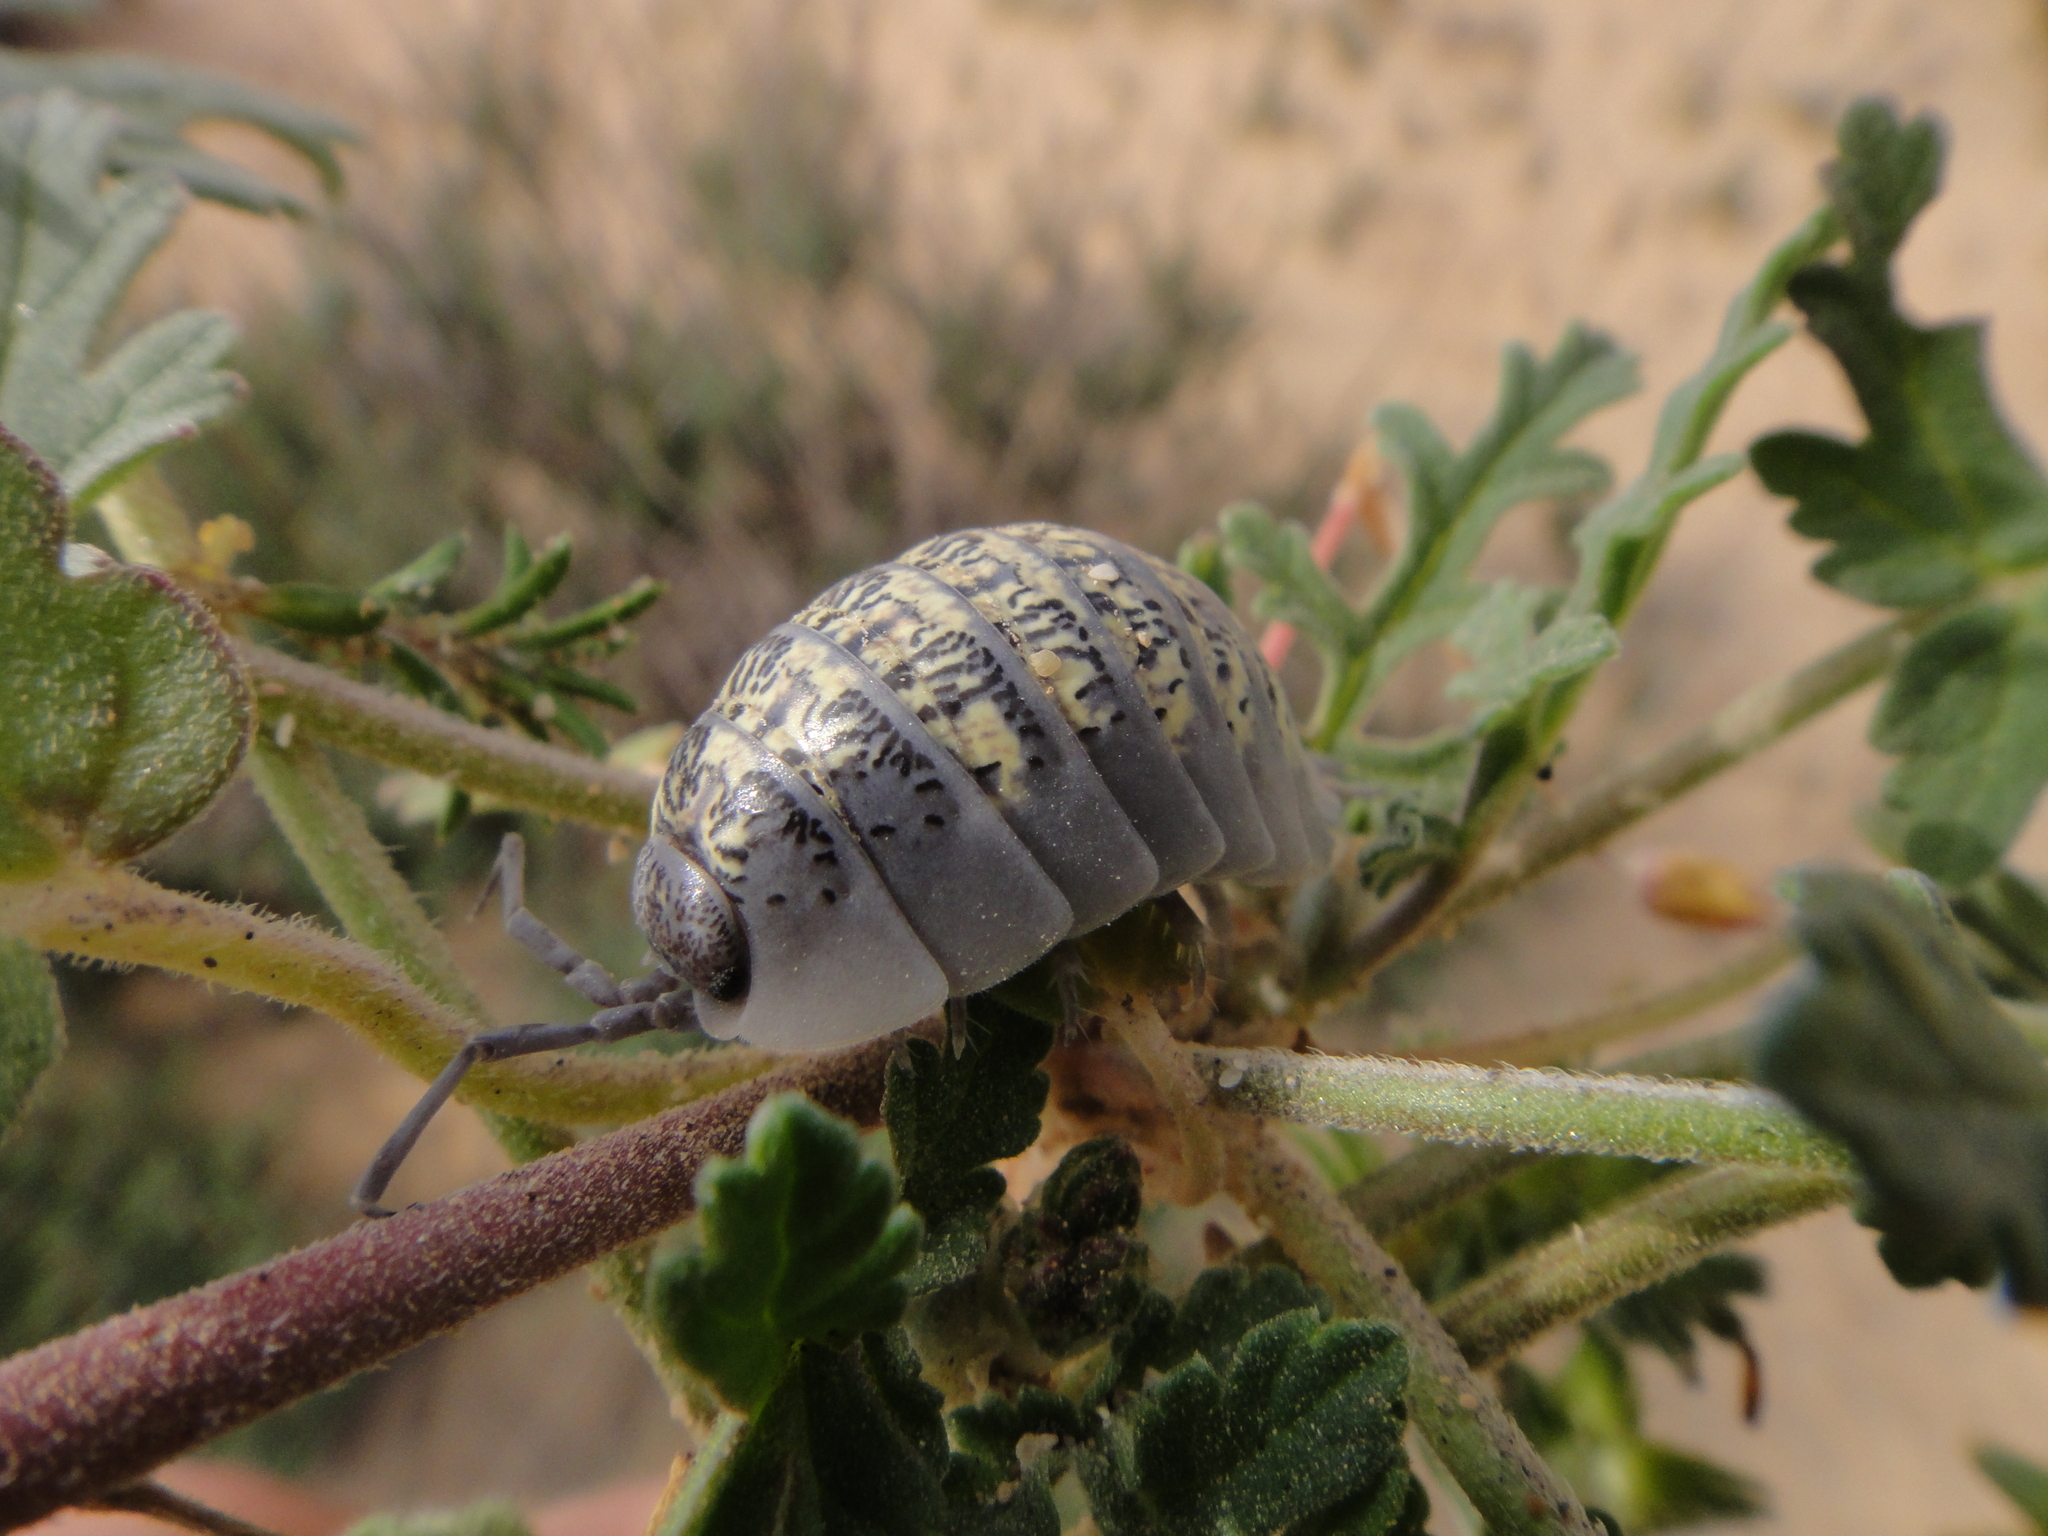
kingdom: Animalia
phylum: Arthropoda
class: Malacostraca
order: Isopoda
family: Porcellionidae
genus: Porcellio
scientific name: Porcellio spinipes
